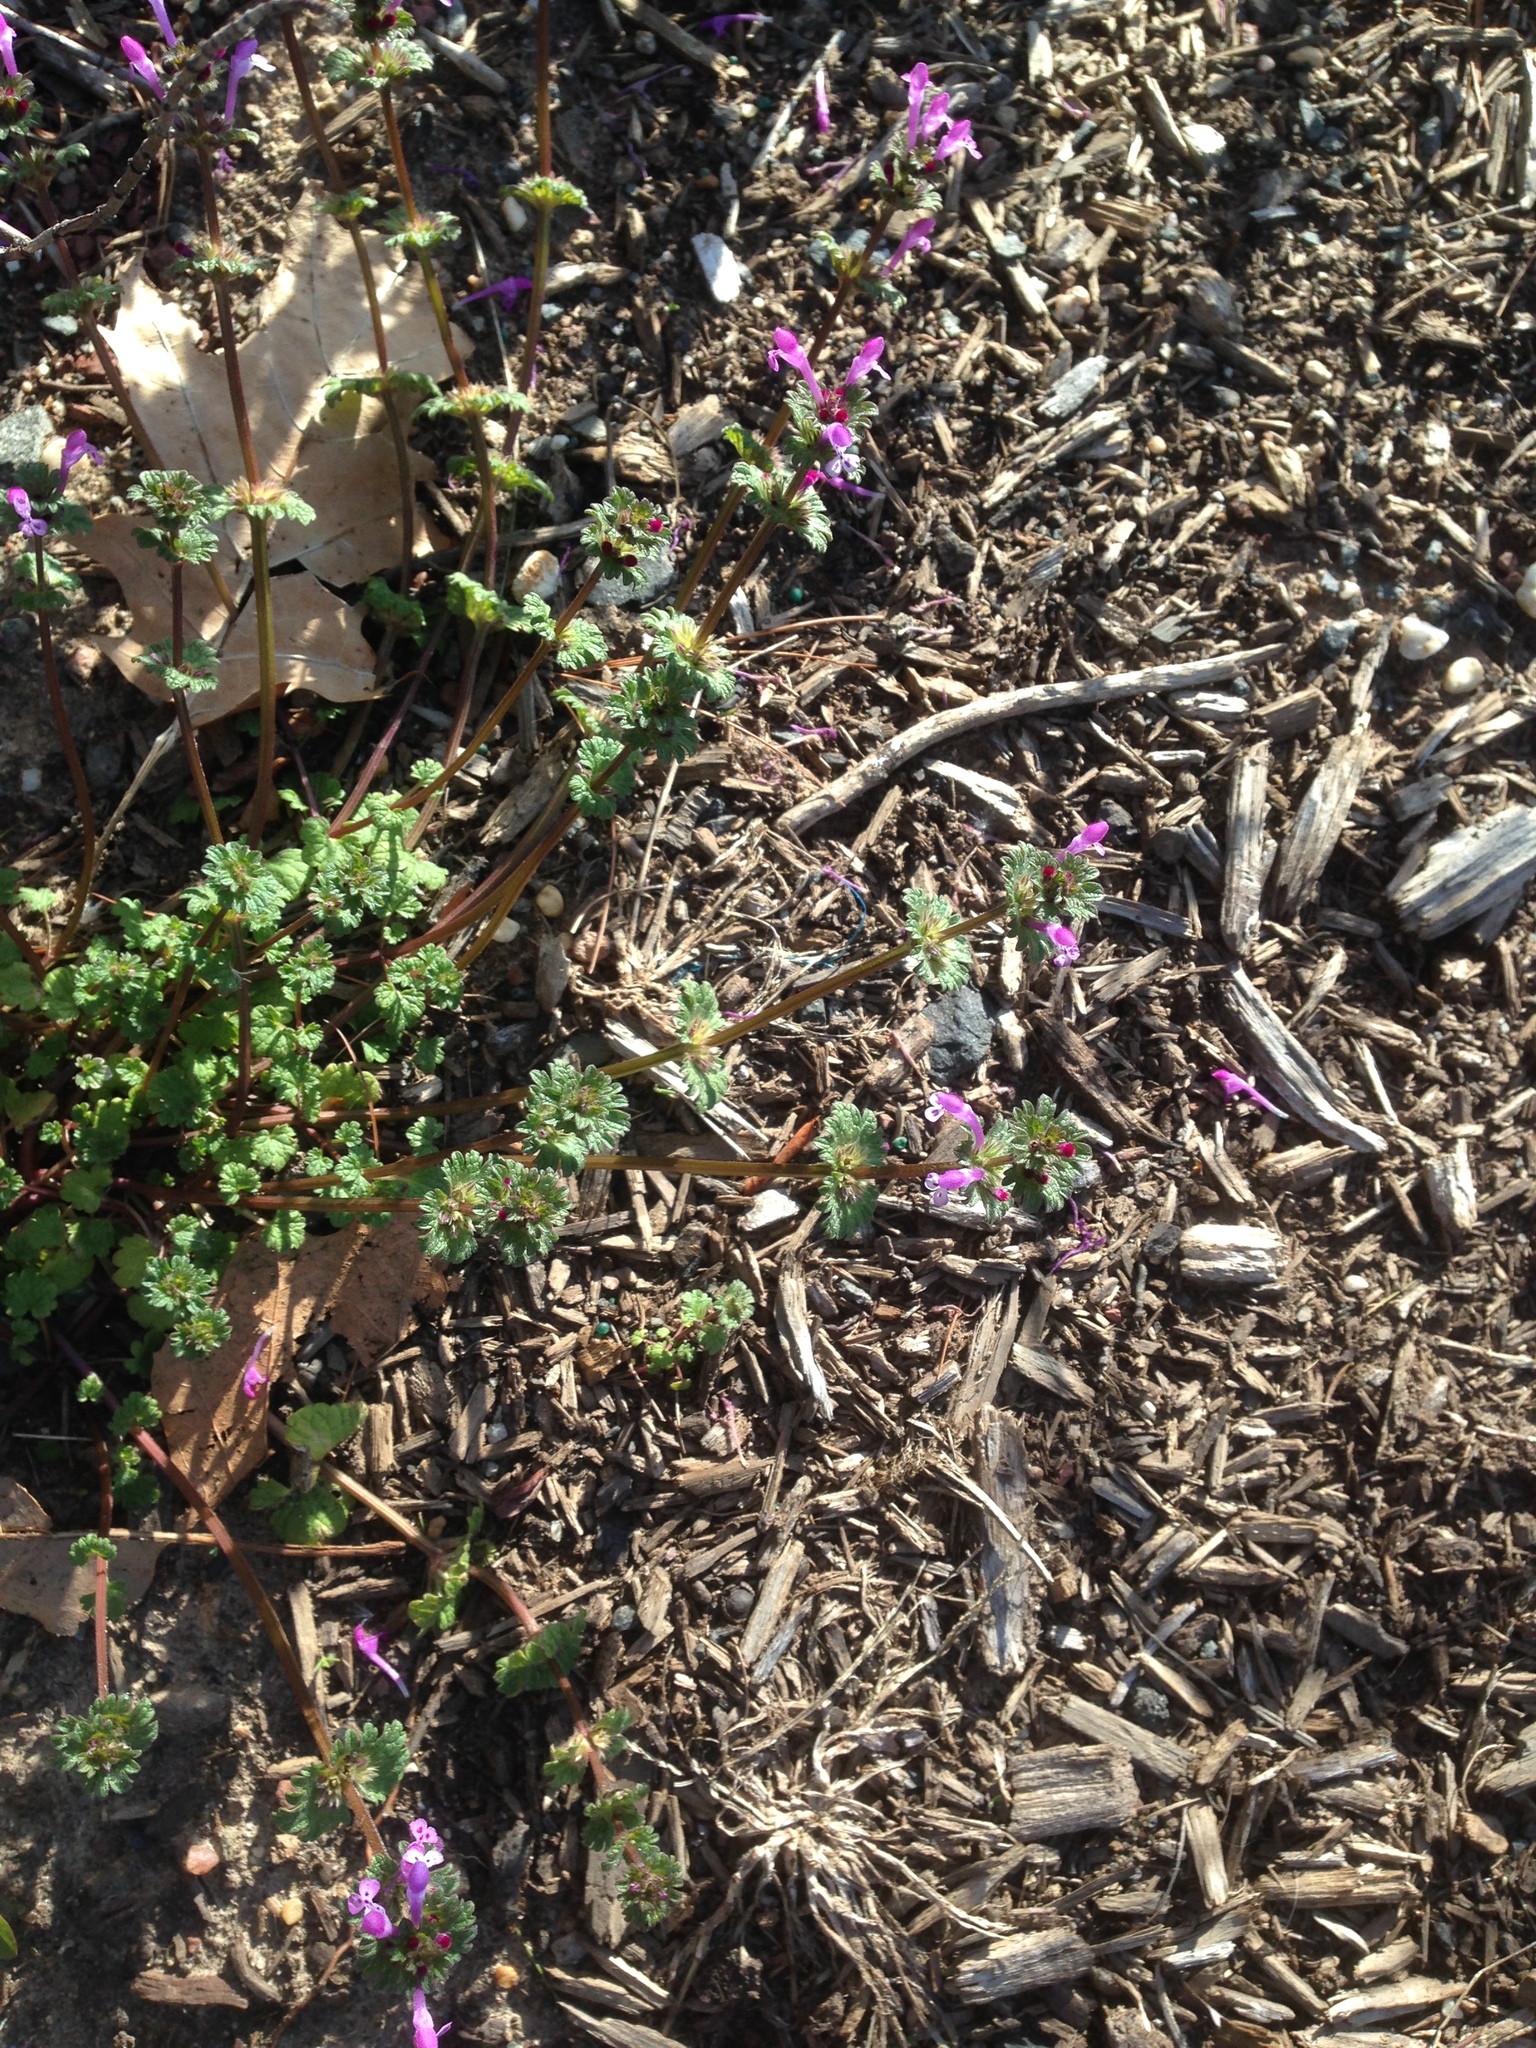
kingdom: Plantae
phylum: Tracheophyta
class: Magnoliopsida
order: Lamiales
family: Lamiaceae
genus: Lamium
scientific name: Lamium amplexicaule
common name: Henbit dead-nettle
